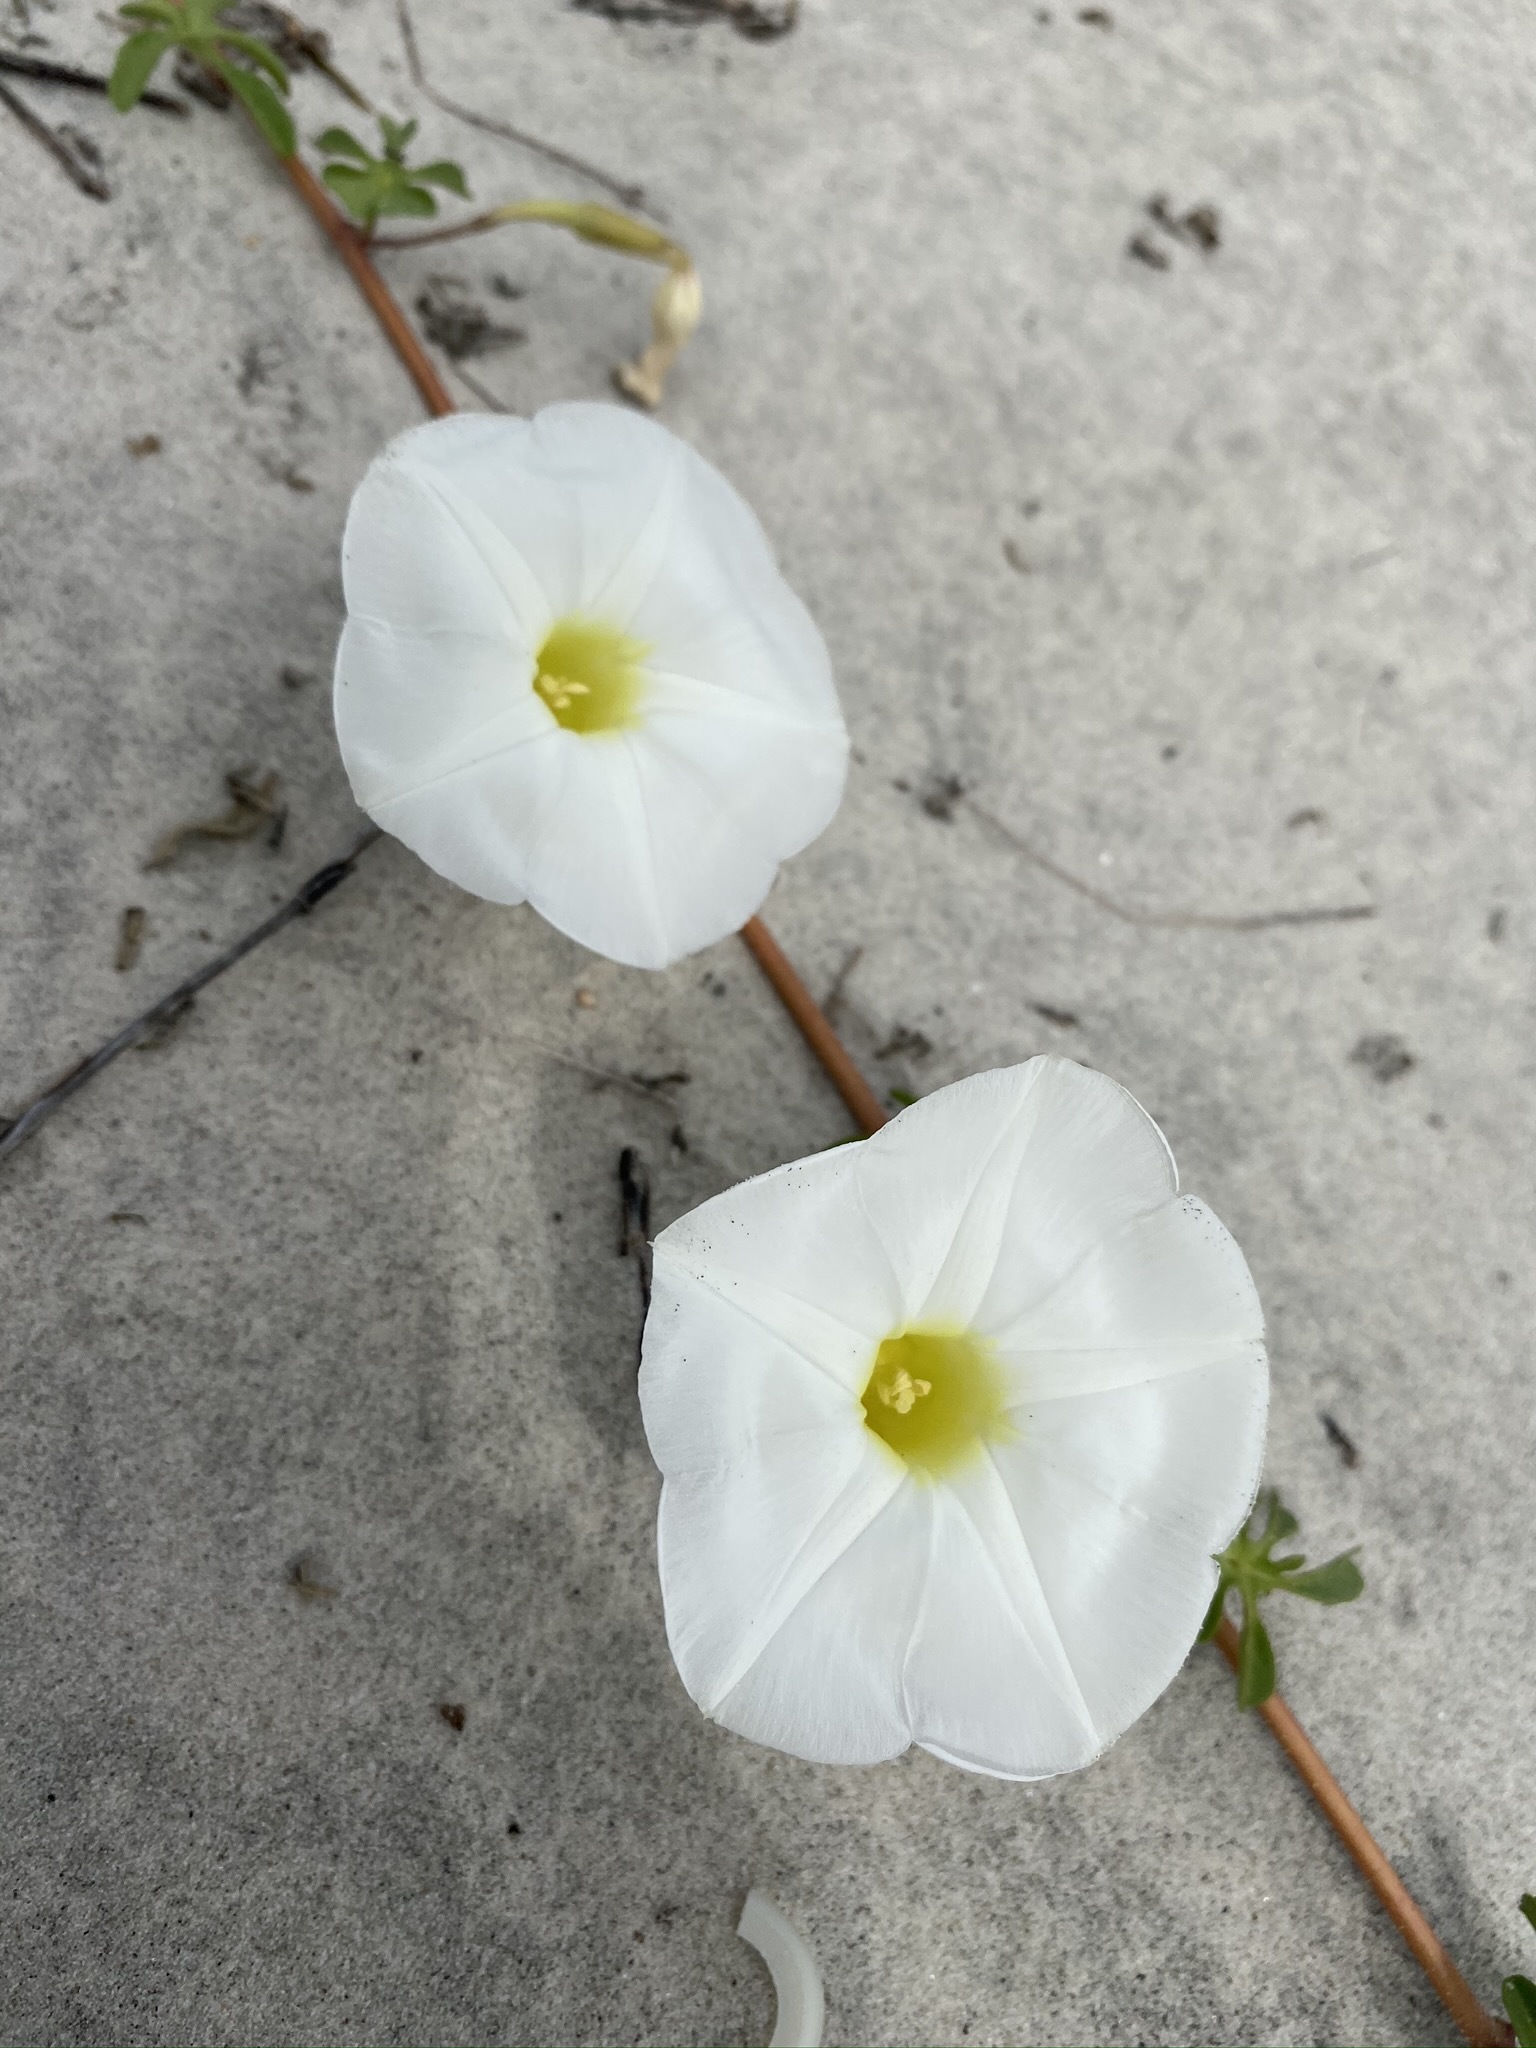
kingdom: Plantae
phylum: Tracheophyta
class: Magnoliopsida
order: Solanales
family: Convolvulaceae
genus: Ipomoea
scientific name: Ipomoea imperati
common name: Fiddle-leaf morning-glory
